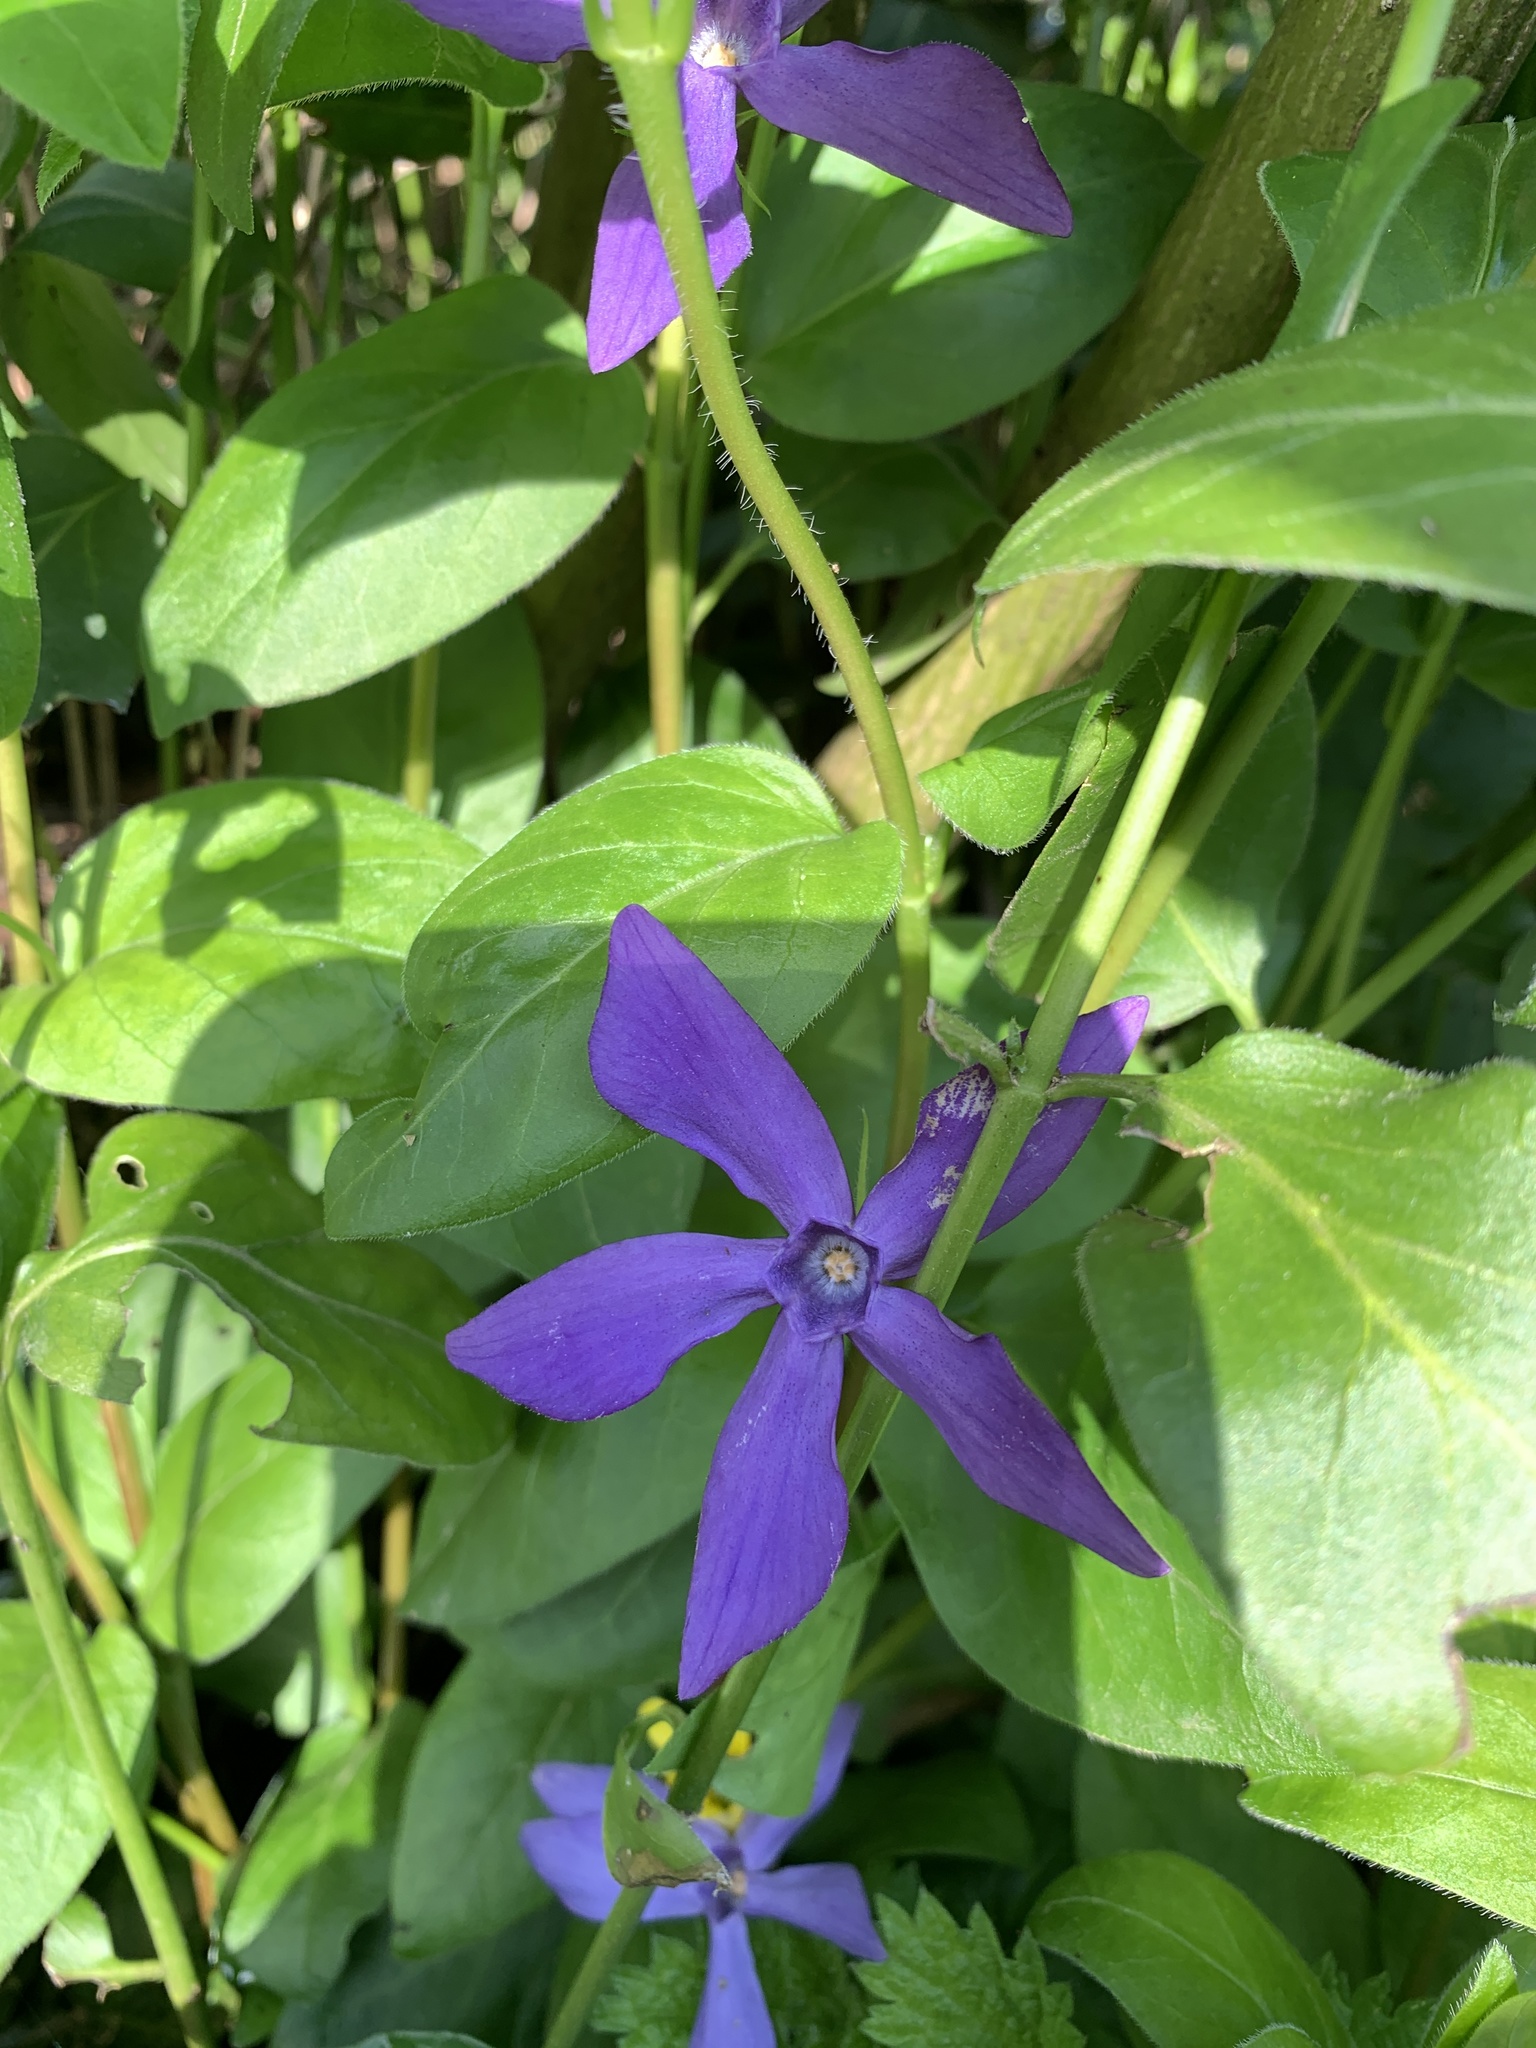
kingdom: Plantae
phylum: Tracheophyta
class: Magnoliopsida
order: Gentianales
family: Apocynaceae
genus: Vinca
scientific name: Vinca major
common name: Greater periwinkle
